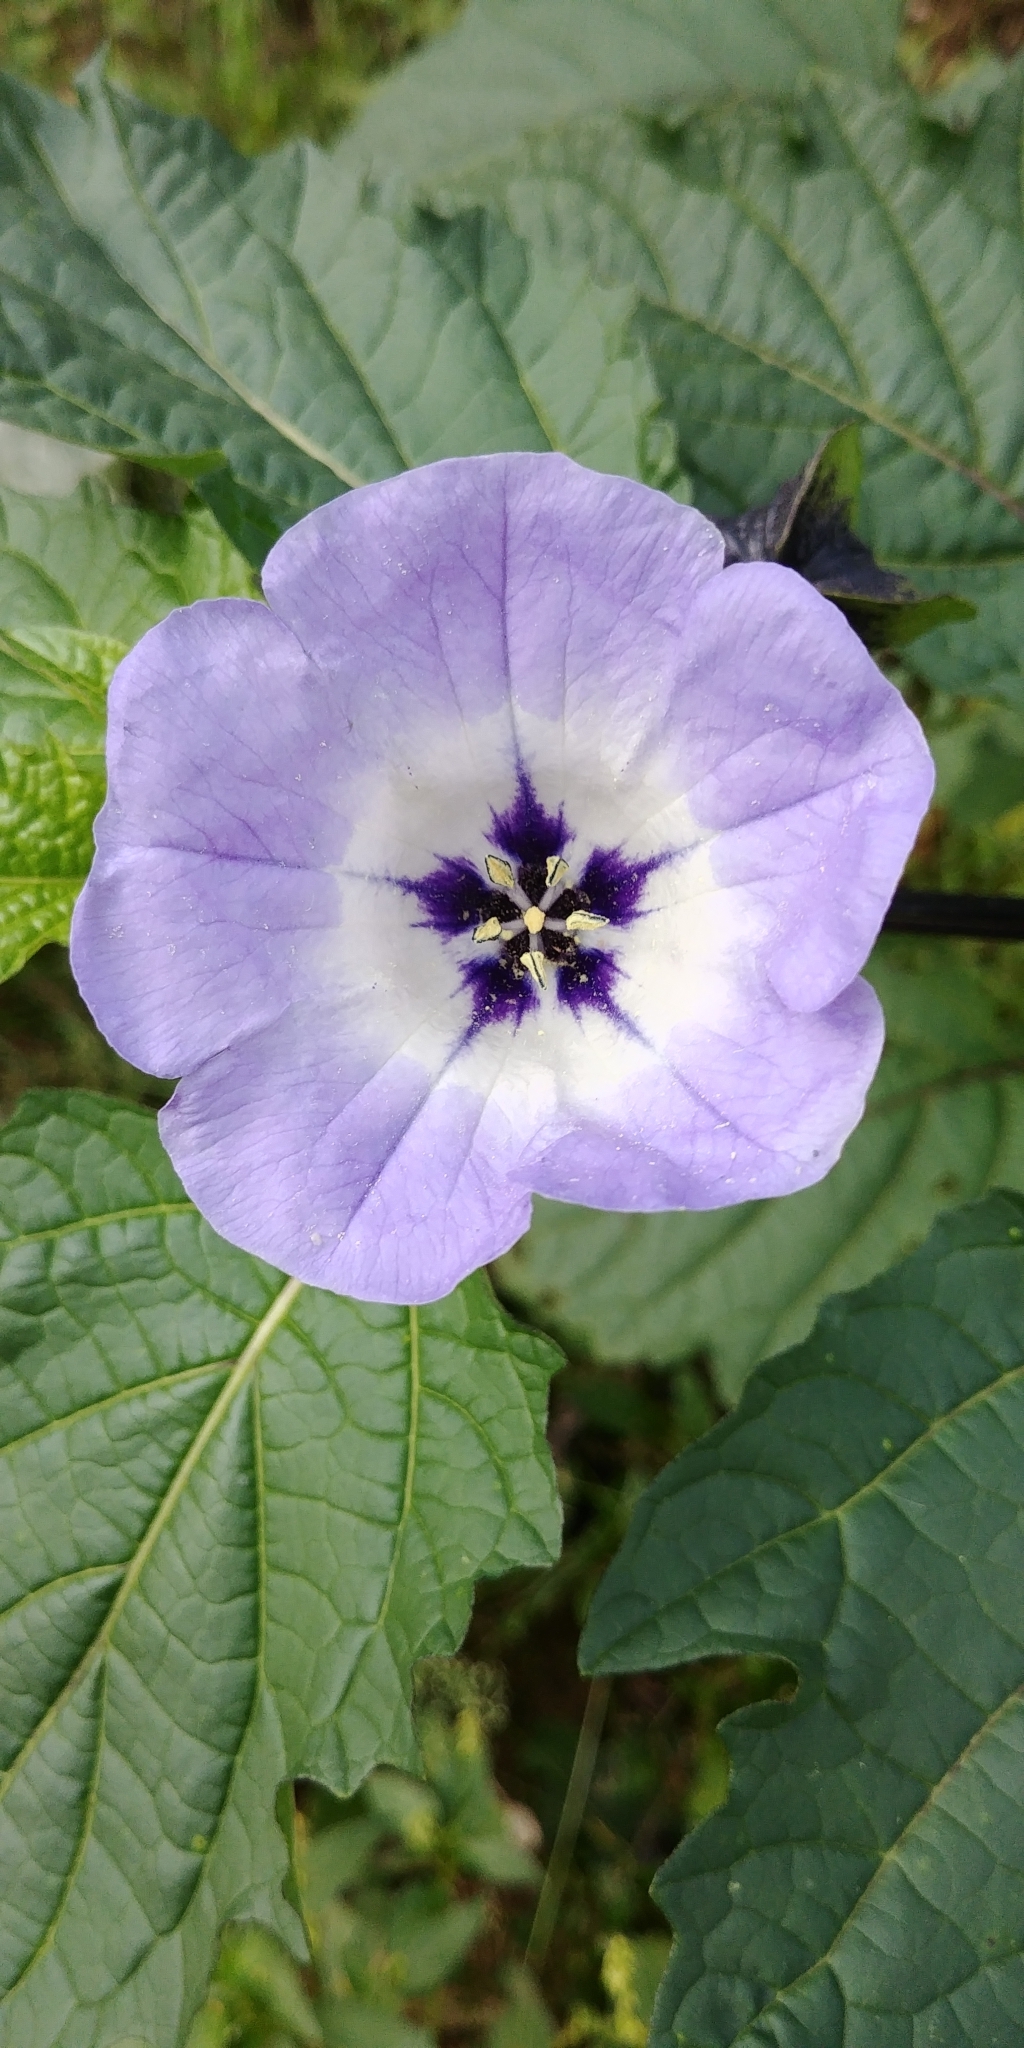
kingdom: Plantae
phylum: Tracheophyta
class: Magnoliopsida
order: Solanales
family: Solanaceae
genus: Nicandra
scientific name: Nicandra physalodes
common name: Apple-of-peru
